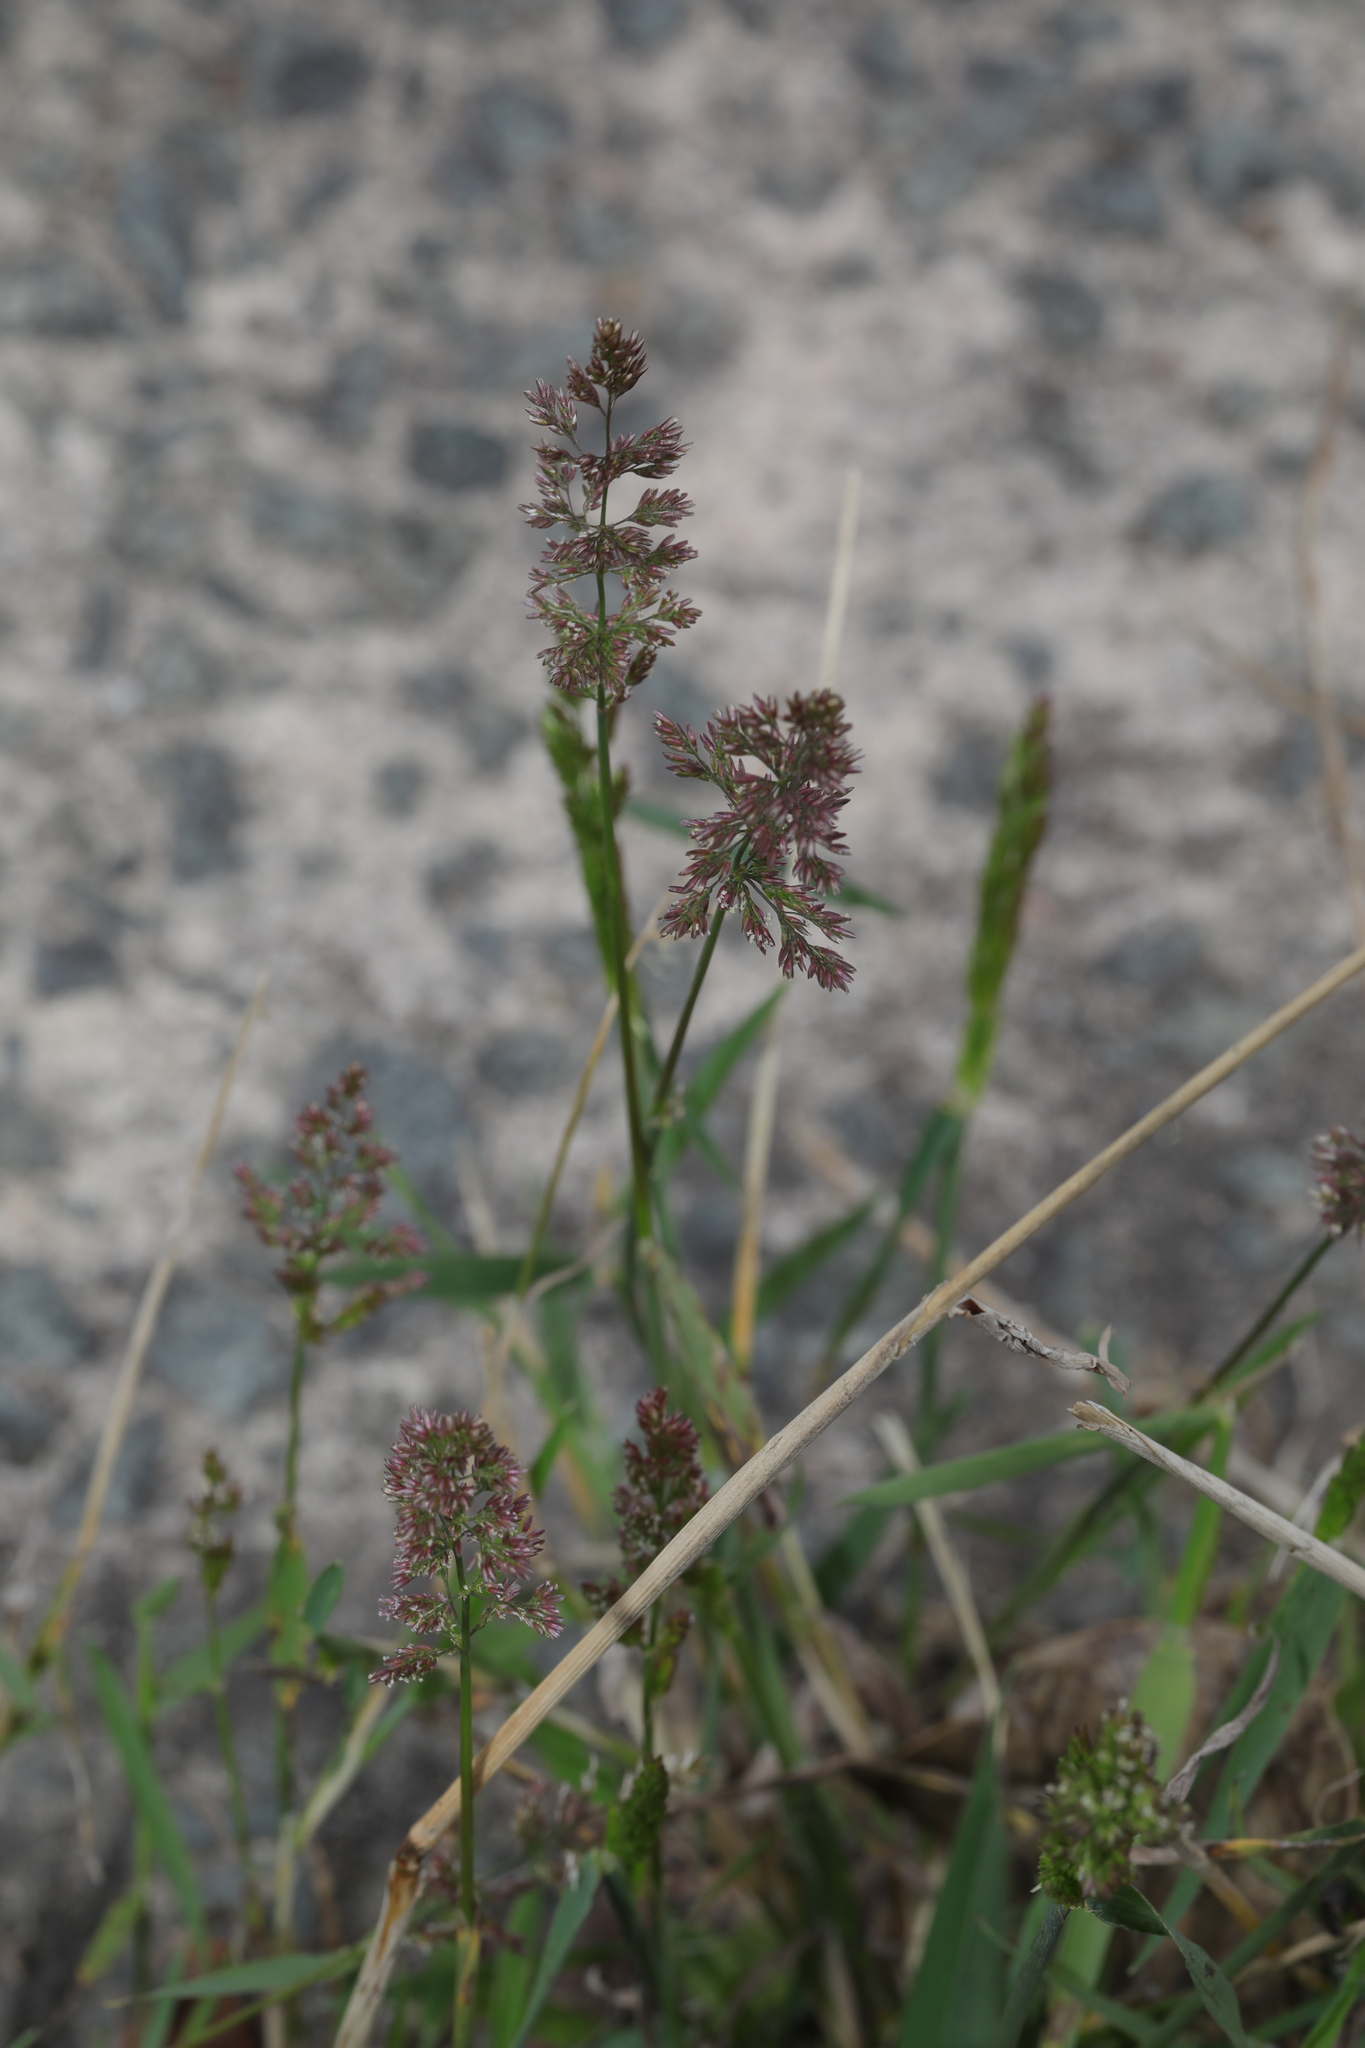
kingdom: Plantae
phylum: Tracheophyta
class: Liliopsida
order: Poales
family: Poaceae
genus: Polypogon
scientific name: Polypogon viridis
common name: Water bent
